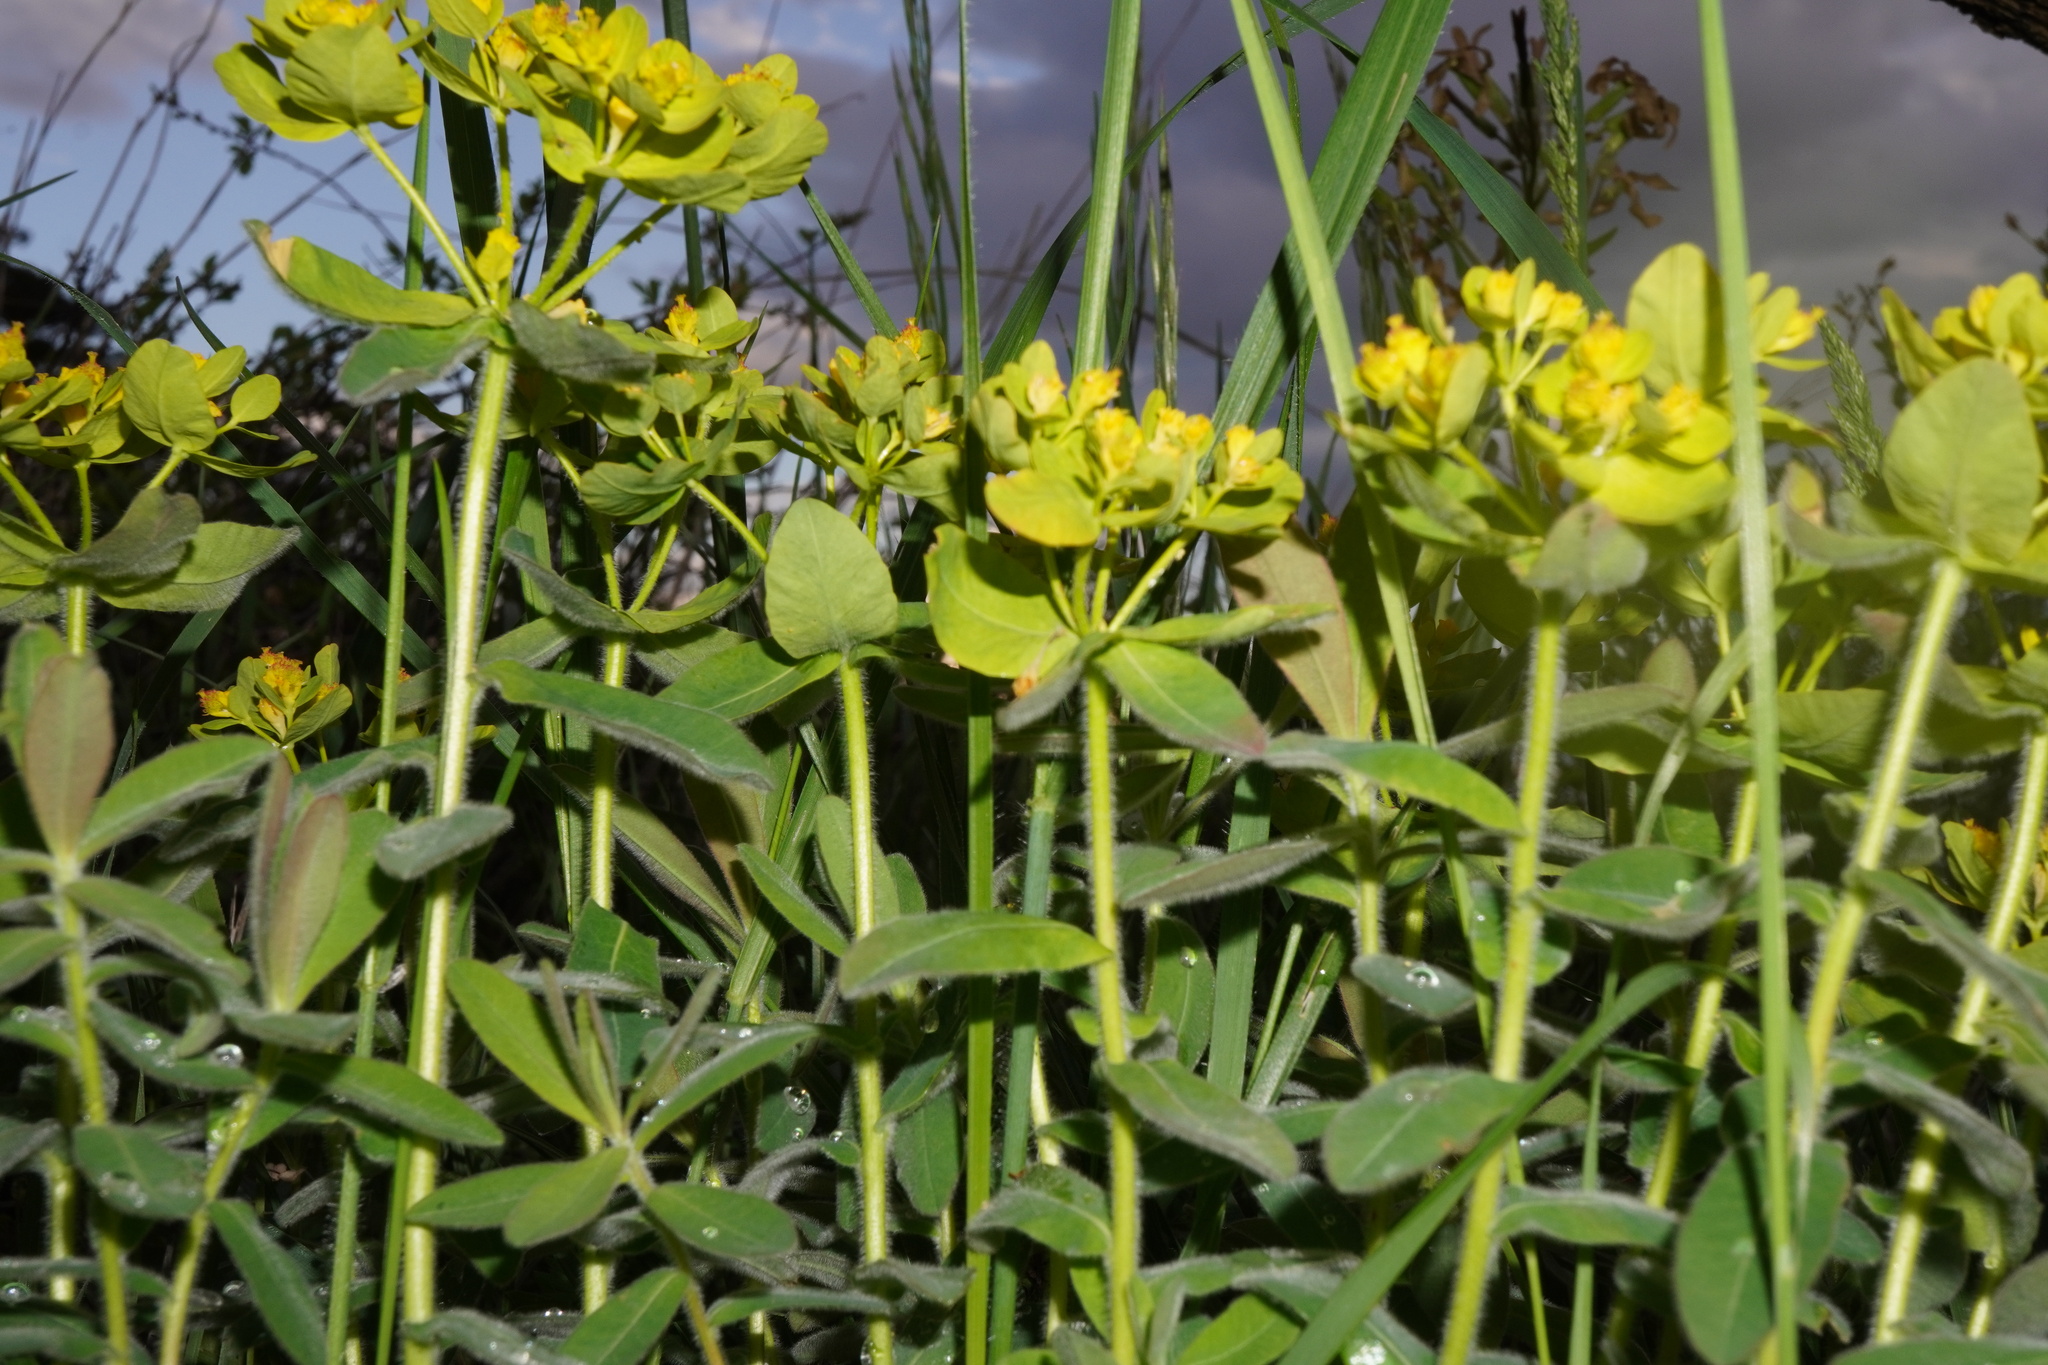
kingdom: Plantae
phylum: Tracheophyta
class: Magnoliopsida
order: Malpighiales
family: Euphorbiaceae
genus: Euphorbia
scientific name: Euphorbia epithymoides
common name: Cushion spurge
